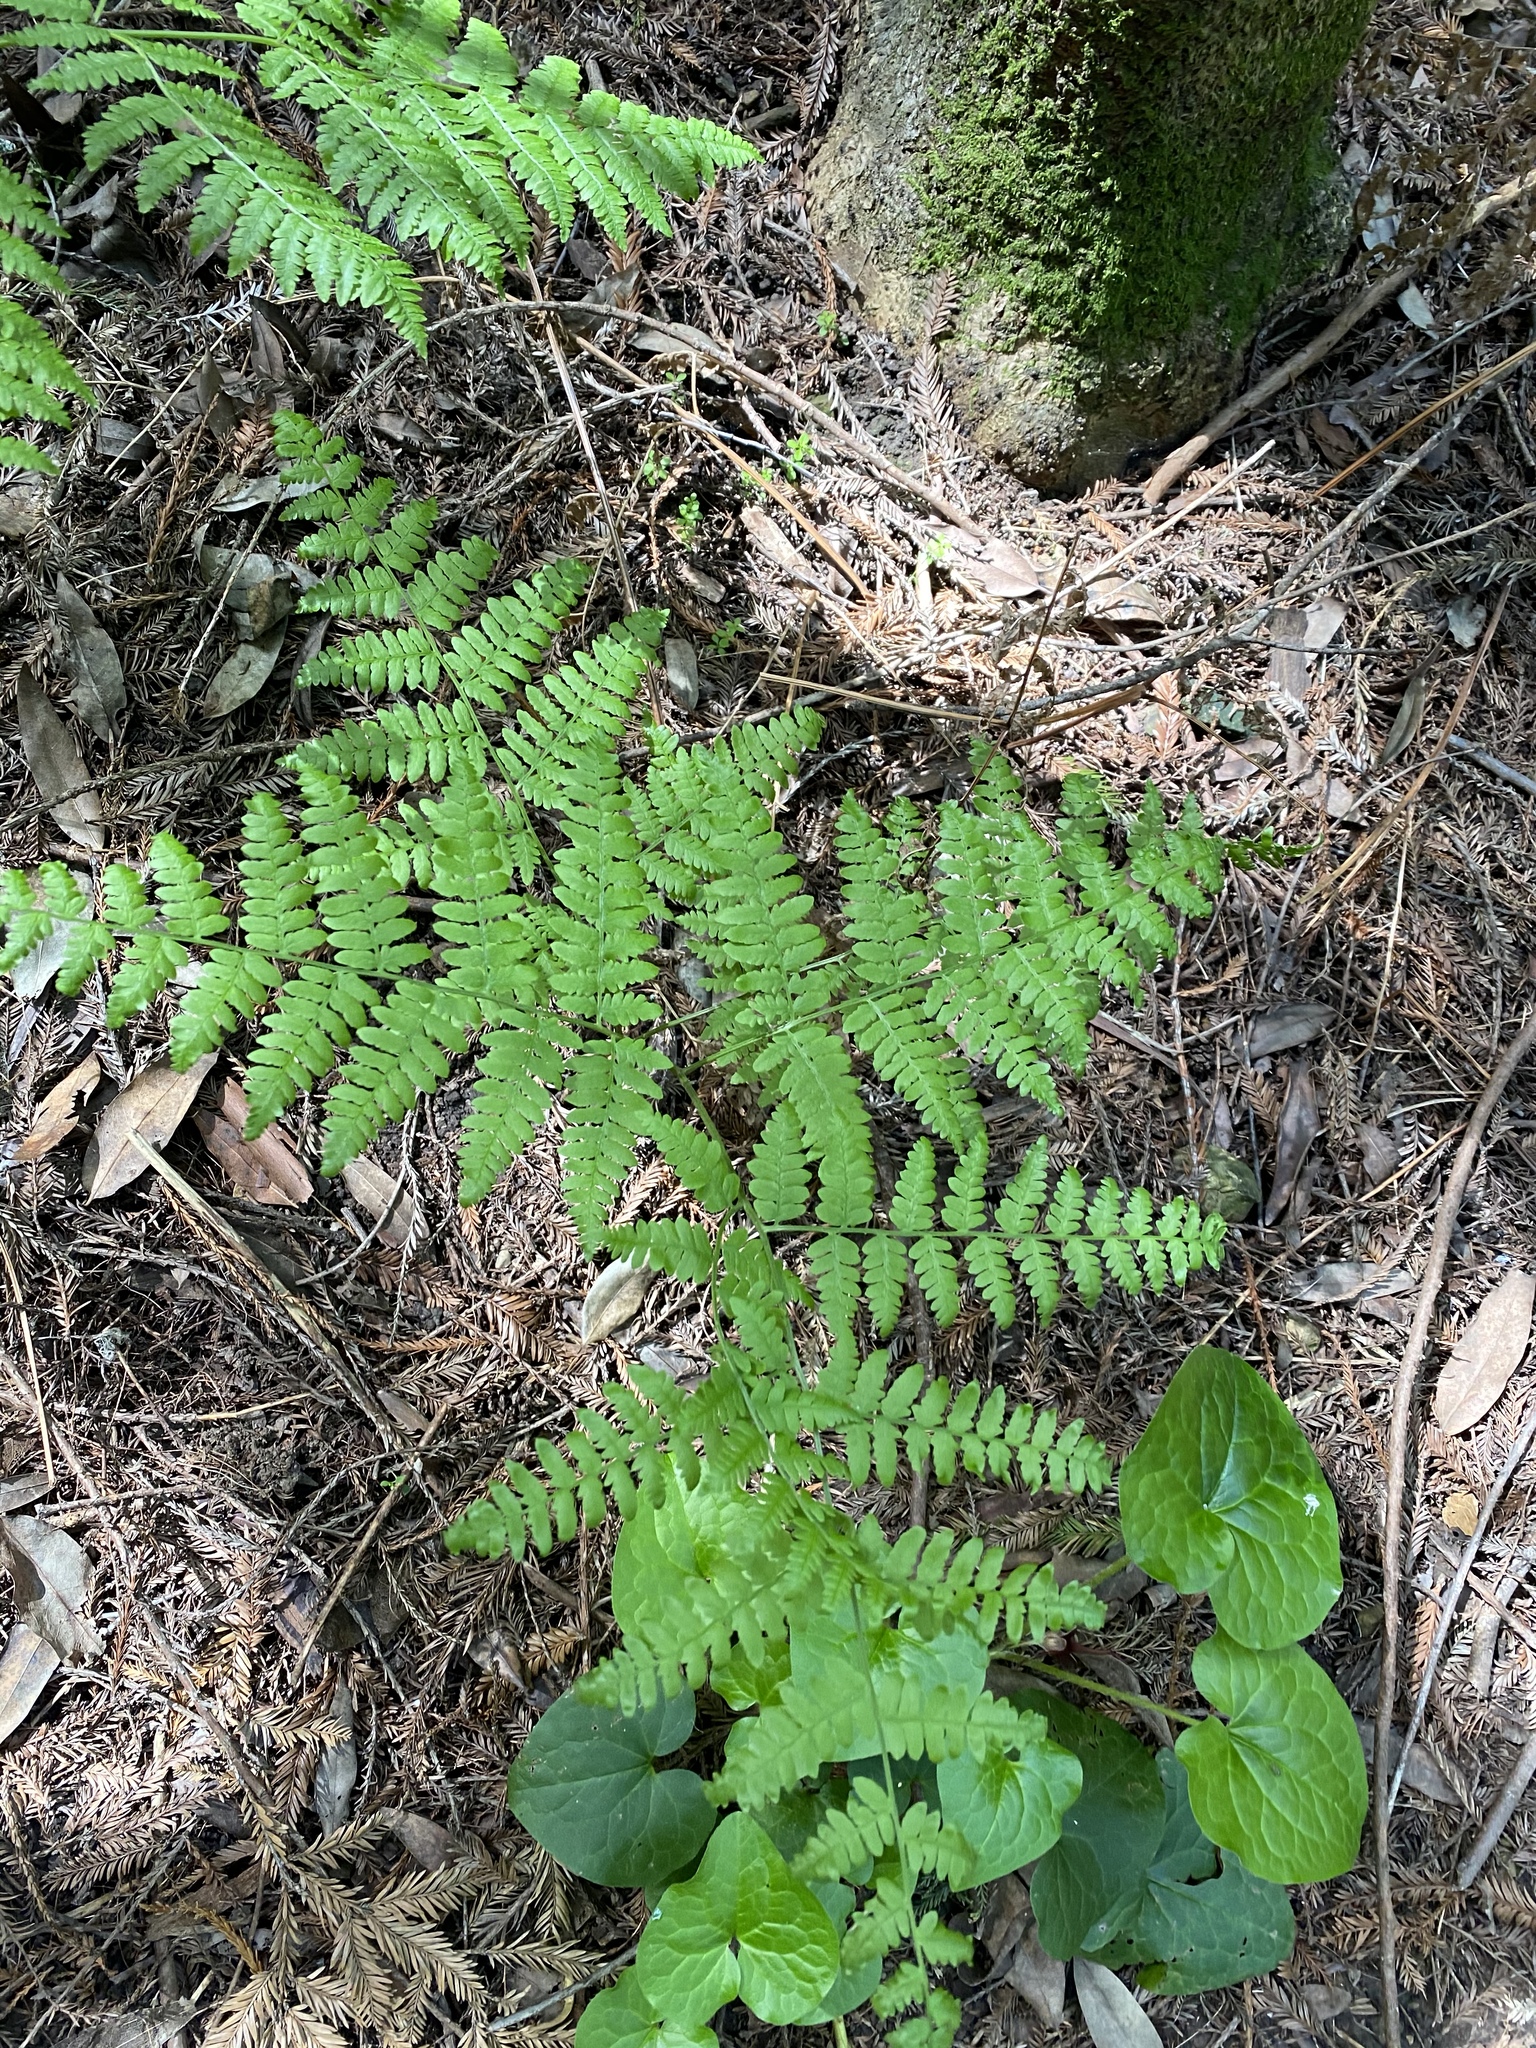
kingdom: Plantae
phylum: Tracheophyta
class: Polypodiopsida
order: Polypodiales
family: Dennstaedtiaceae
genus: Pteridium
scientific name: Pteridium aquilinum
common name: Bracken
